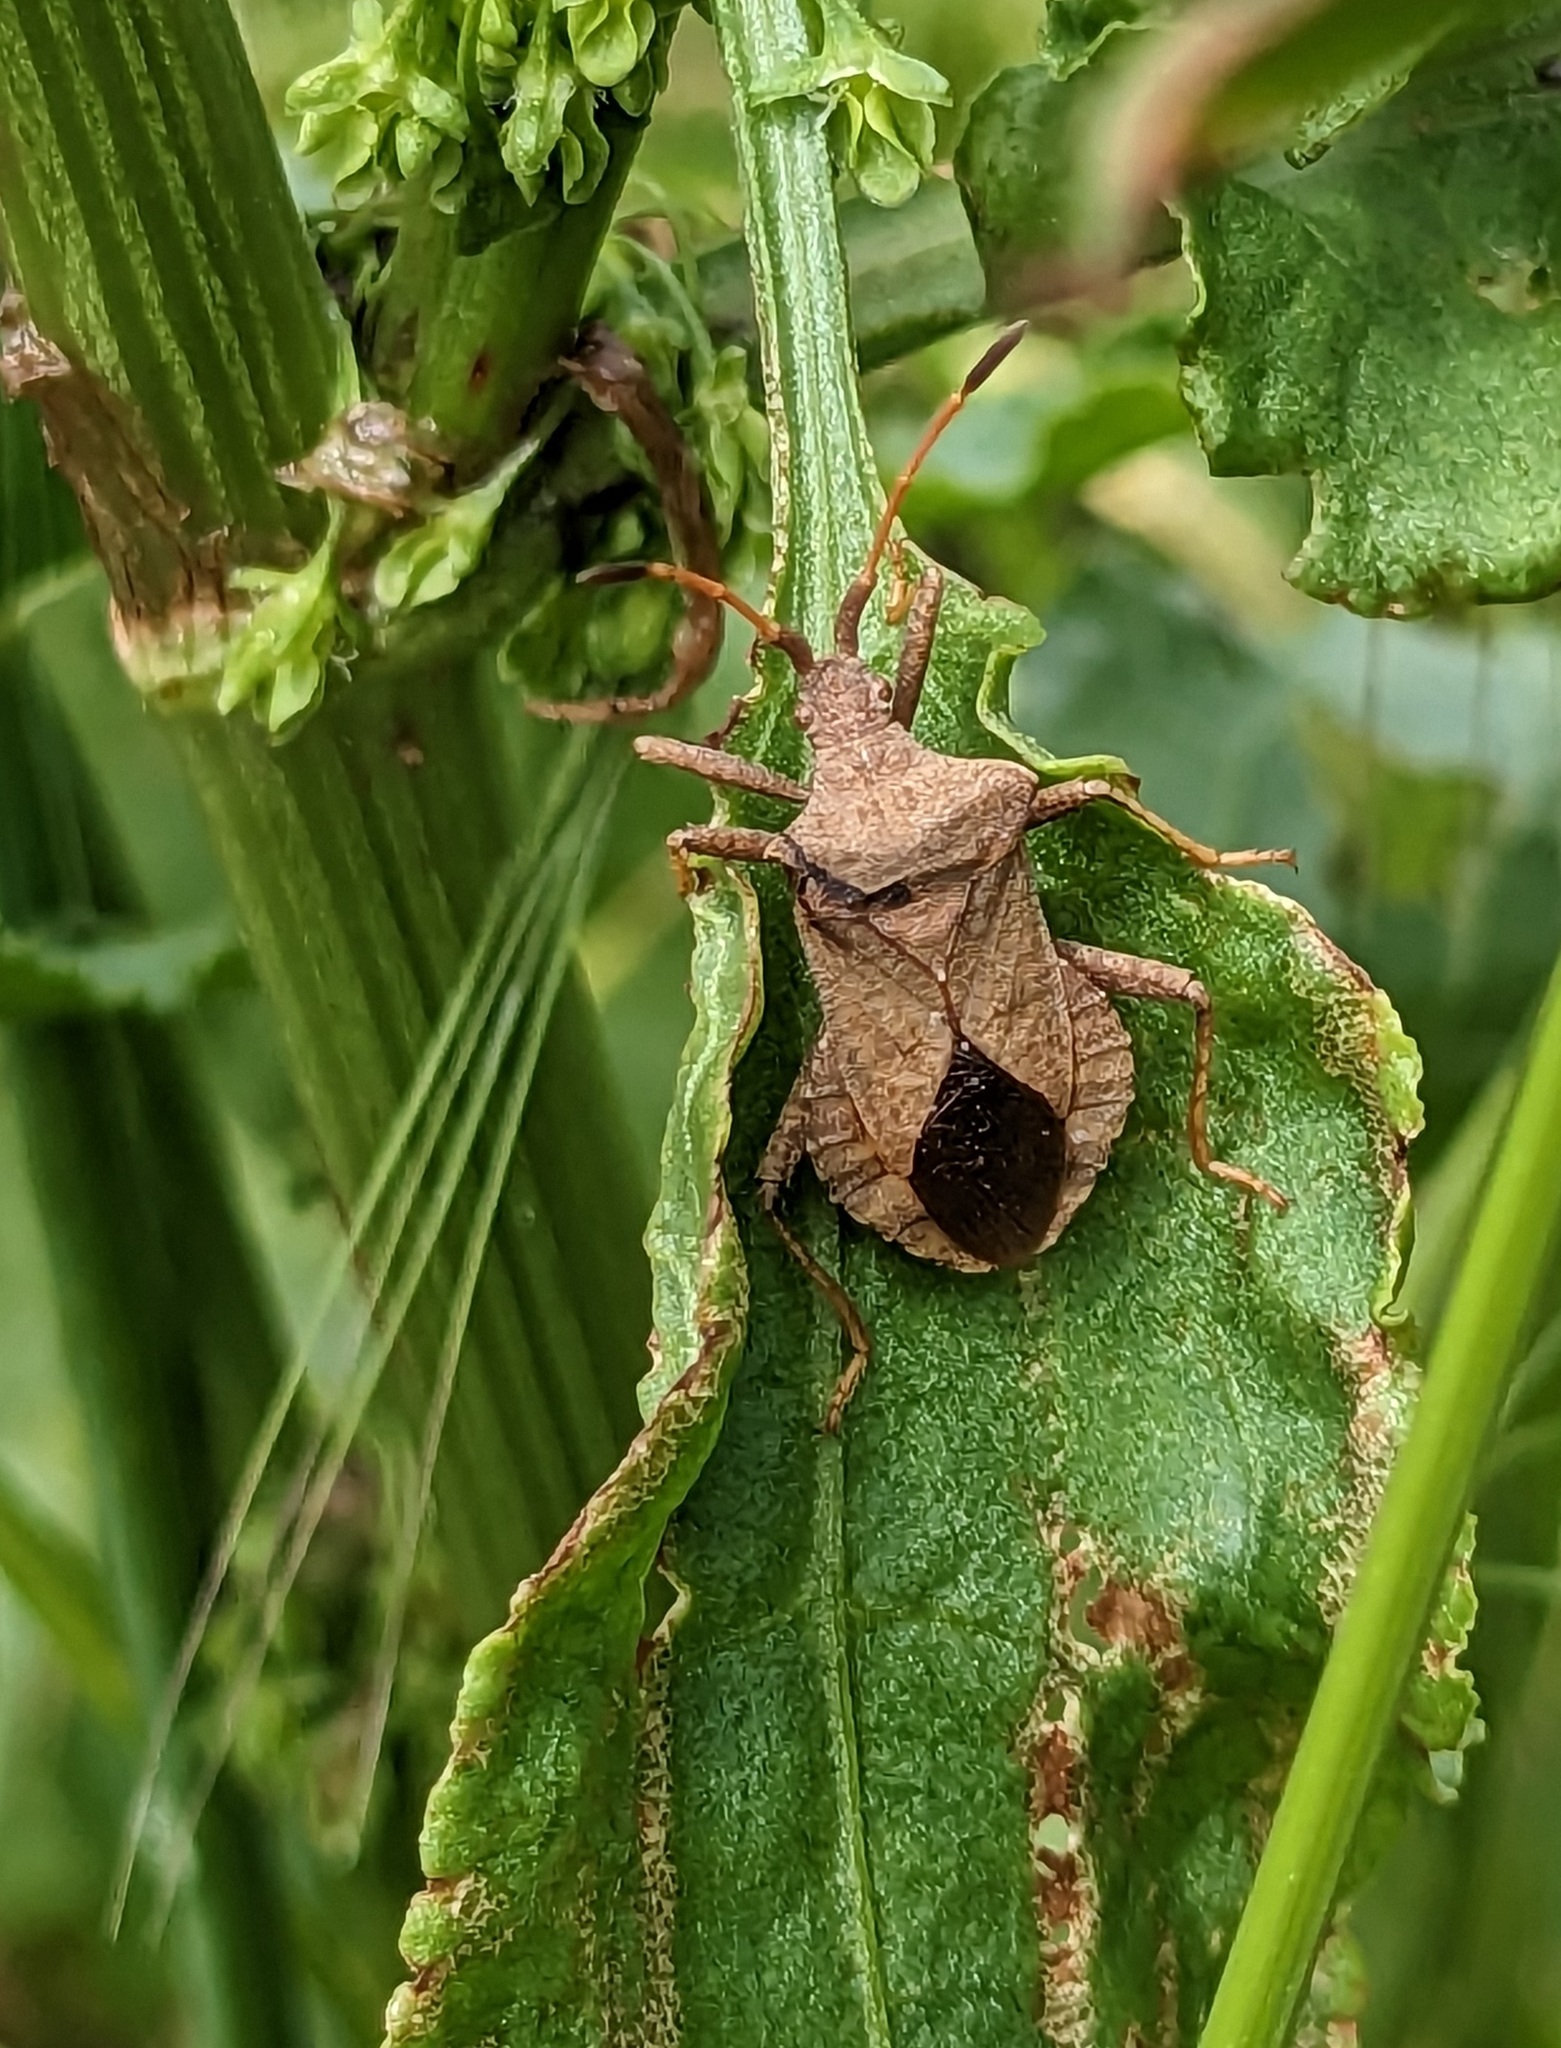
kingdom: Animalia
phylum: Arthropoda
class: Insecta
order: Hemiptera
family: Coreidae
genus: Coreus
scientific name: Coreus marginatus
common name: Dock bug
